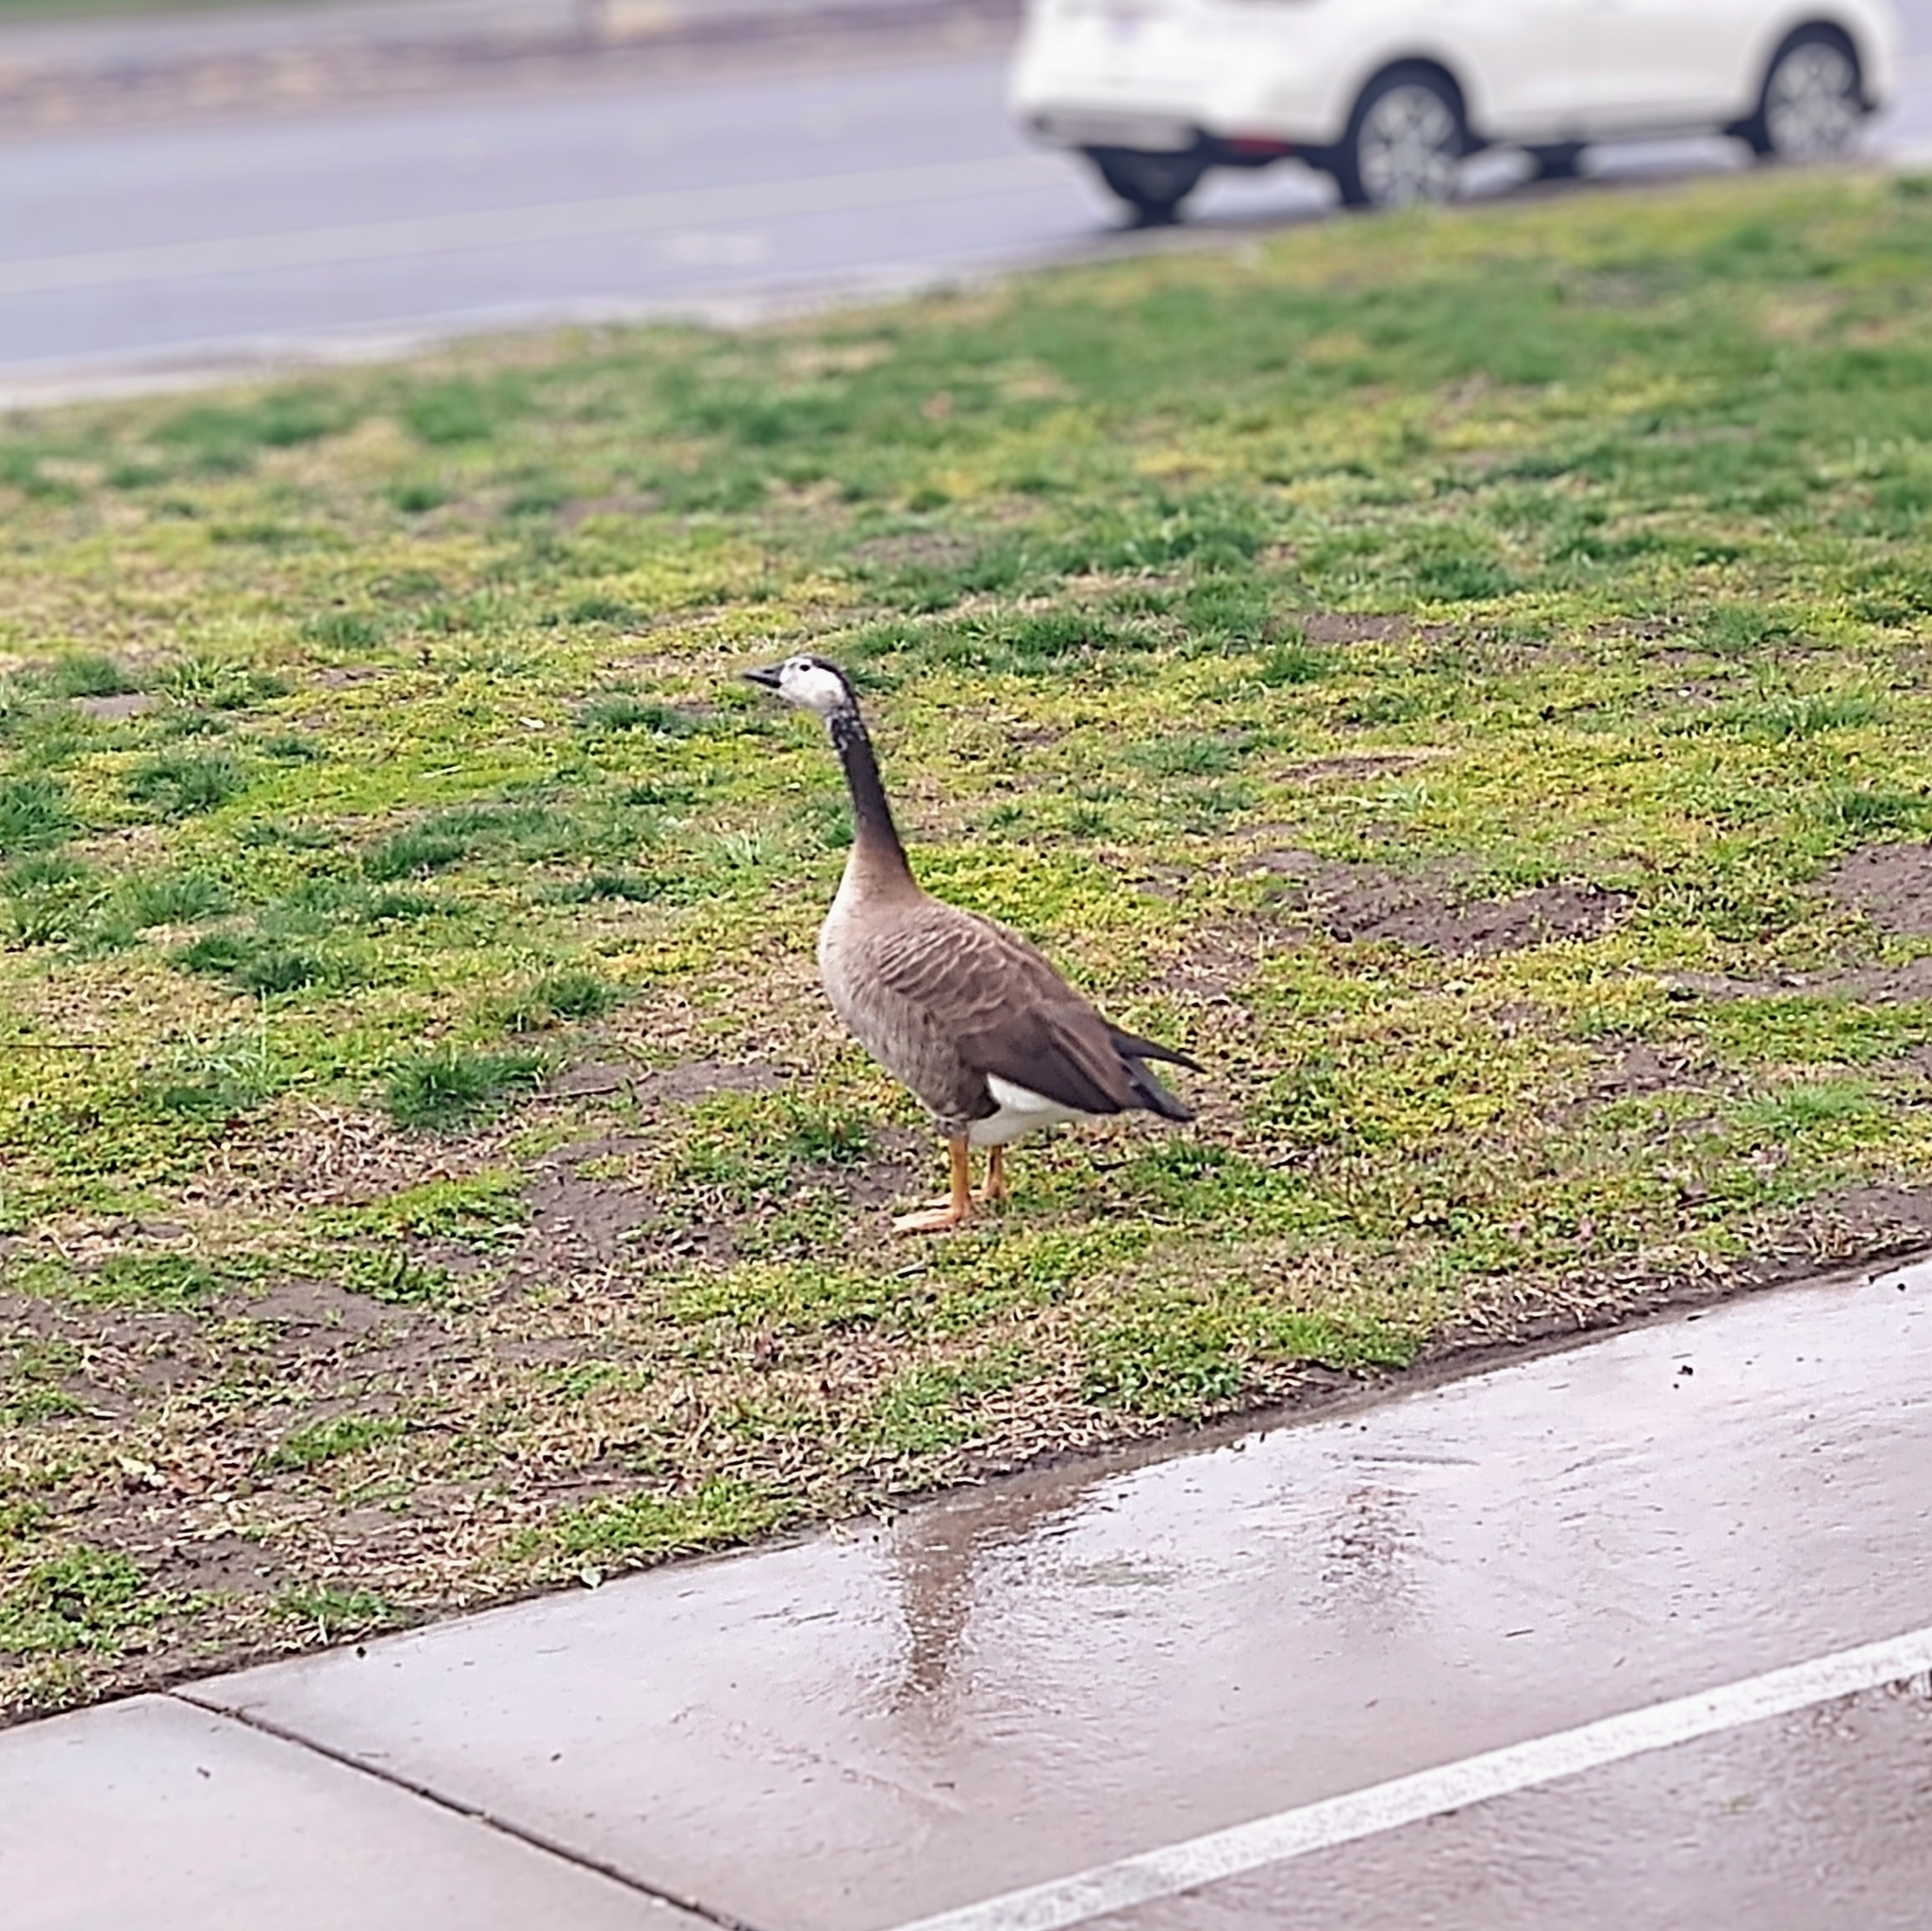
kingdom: Animalia
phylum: Chordata
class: Aves
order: Anseriformes
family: Anatidae
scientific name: Anatidae
